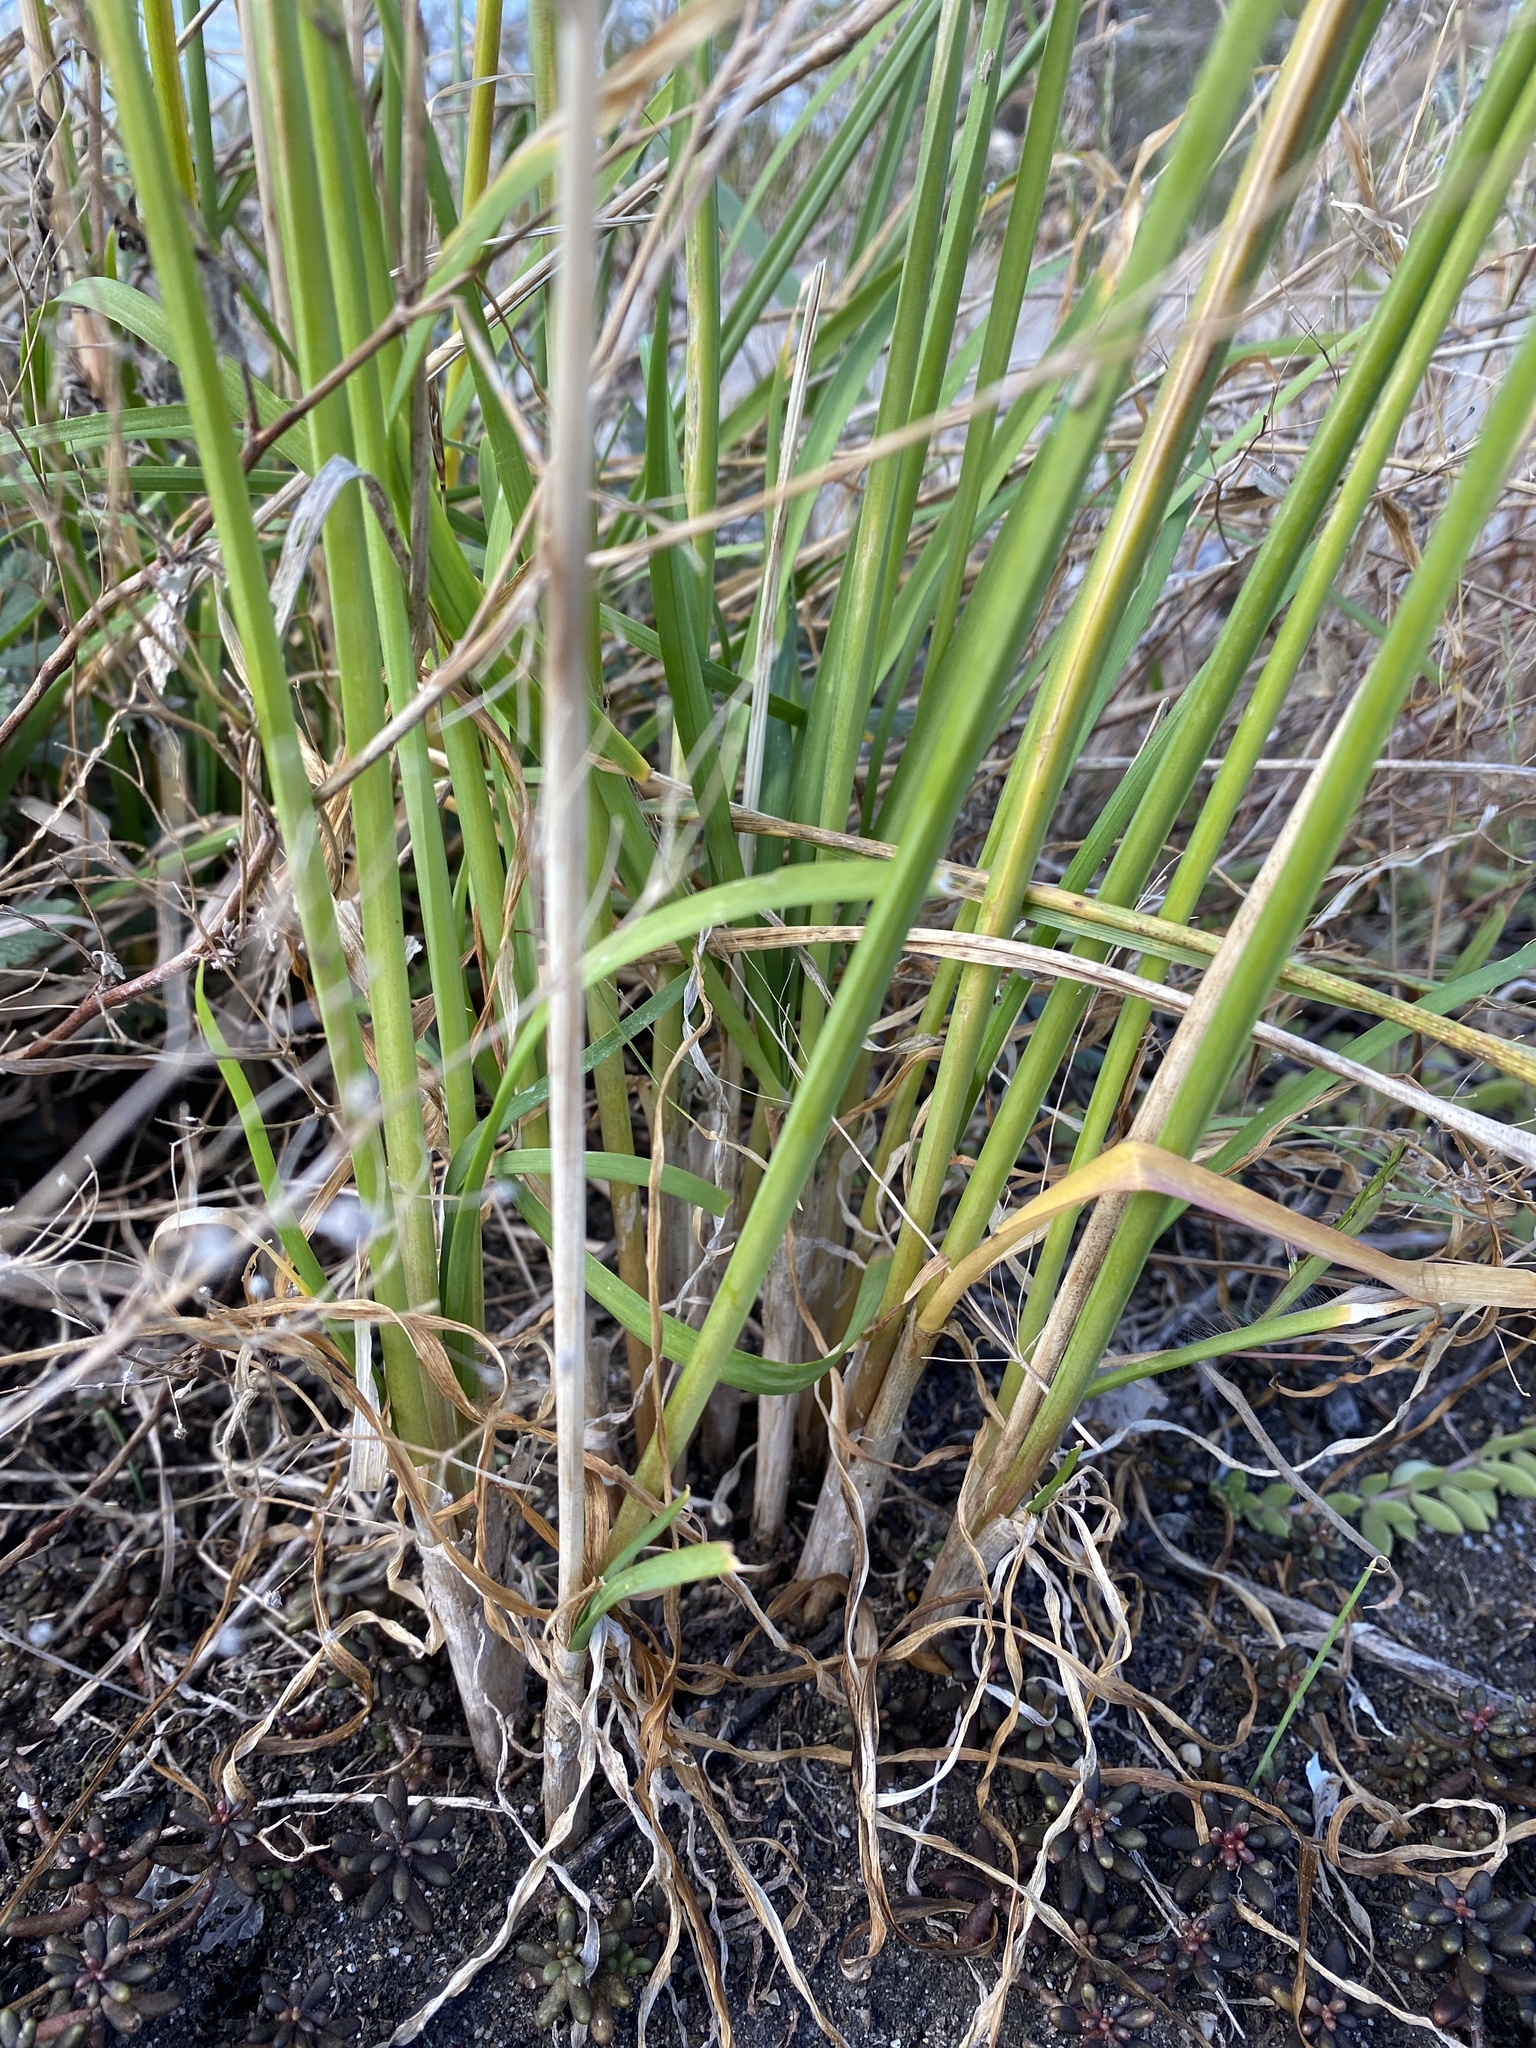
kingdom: Plantae
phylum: Tracheophyta
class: Liliopsida
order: Asparagales
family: Amaryllidaceae
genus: Allium
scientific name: Allium tuberosum
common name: Chinese chives
